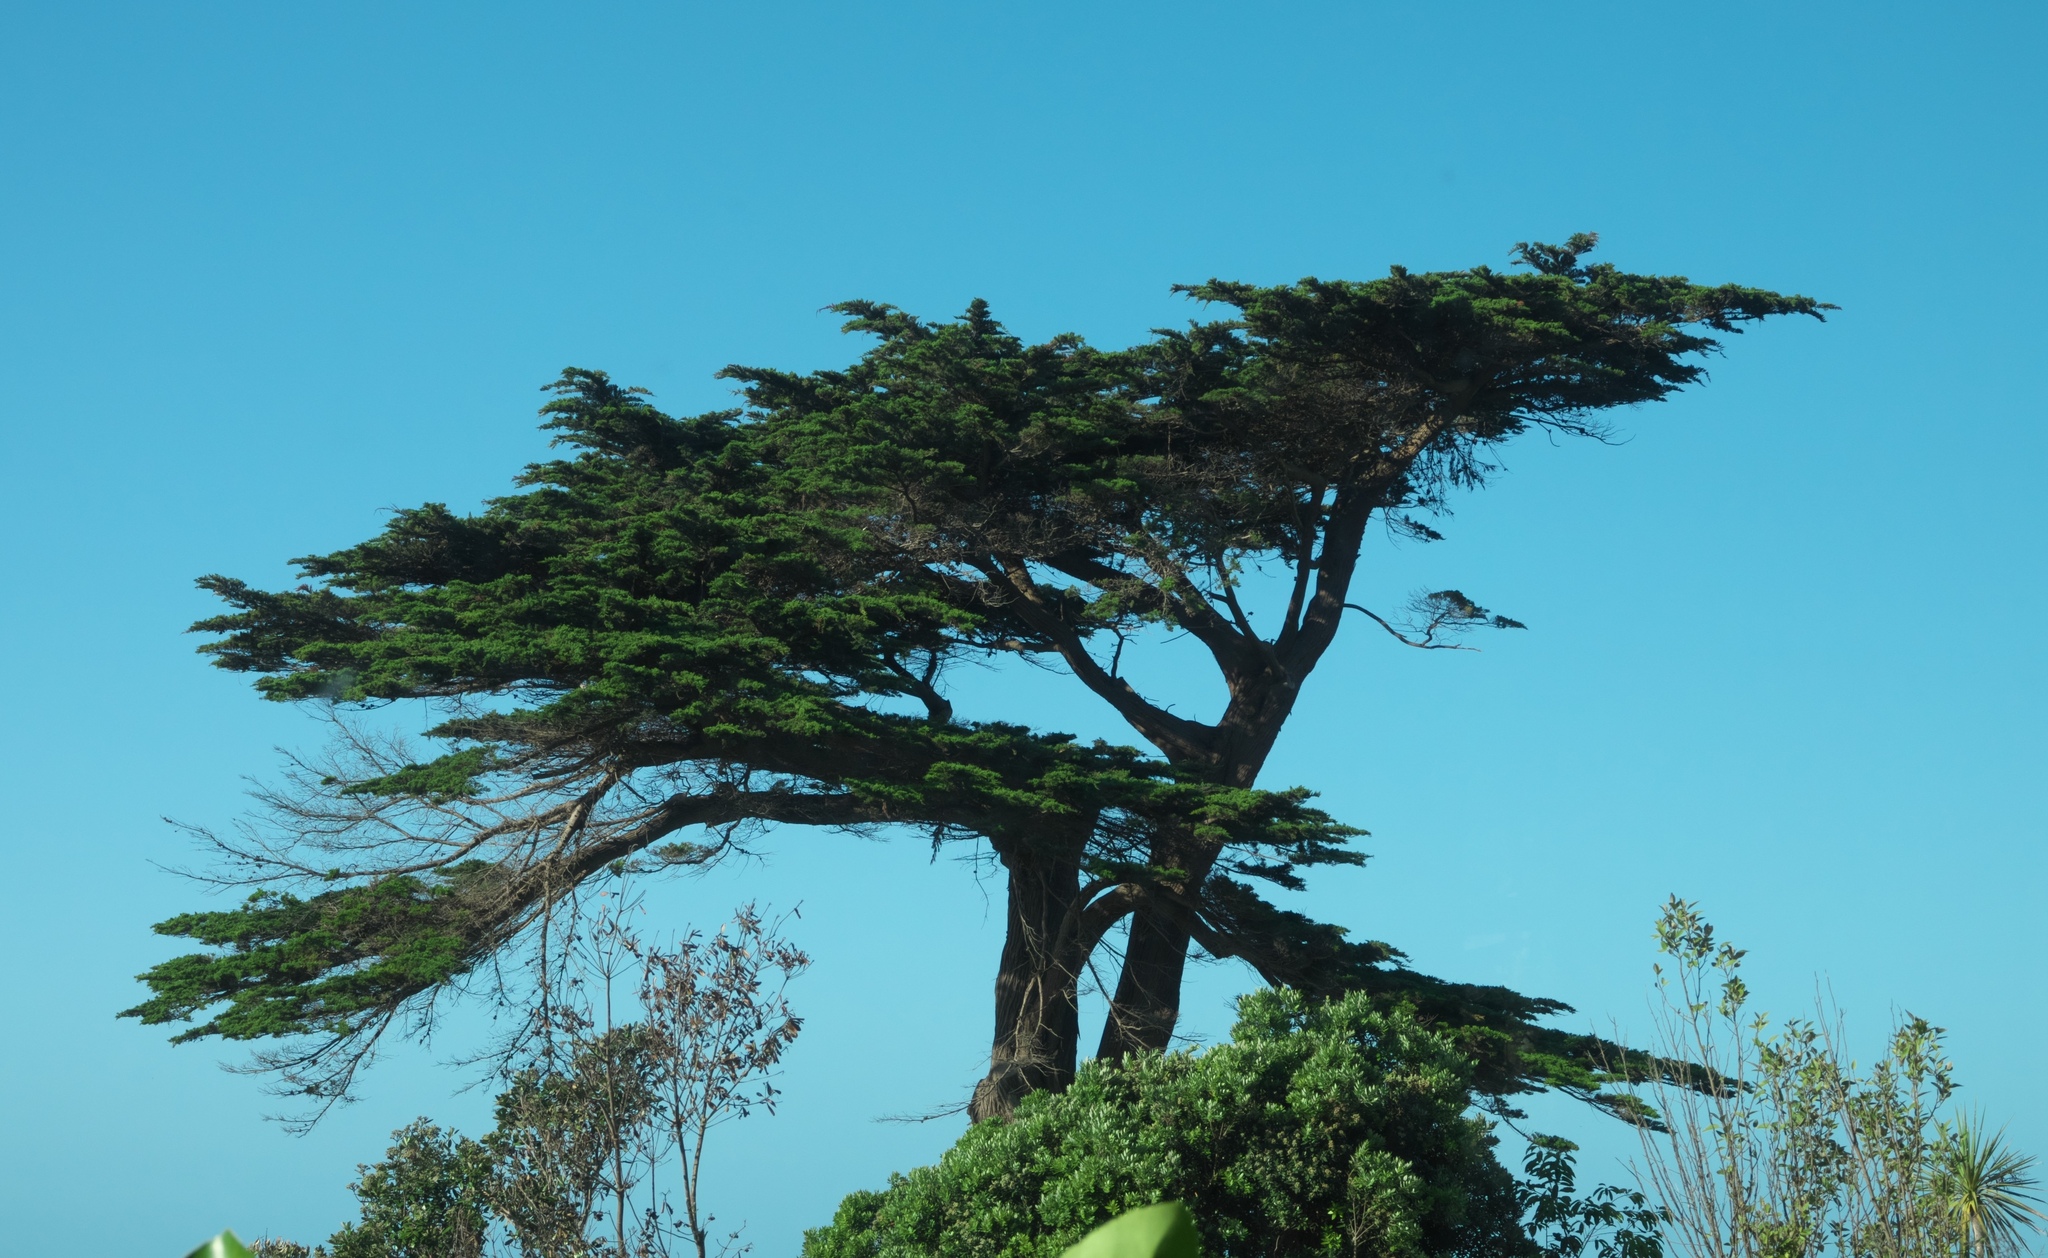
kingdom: Plantae
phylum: Tracheophyta
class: Pinopsida
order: Pinales
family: Cupressaceae
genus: Cupressus
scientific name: Cupressus macrocarpa
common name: Monterey cypress
